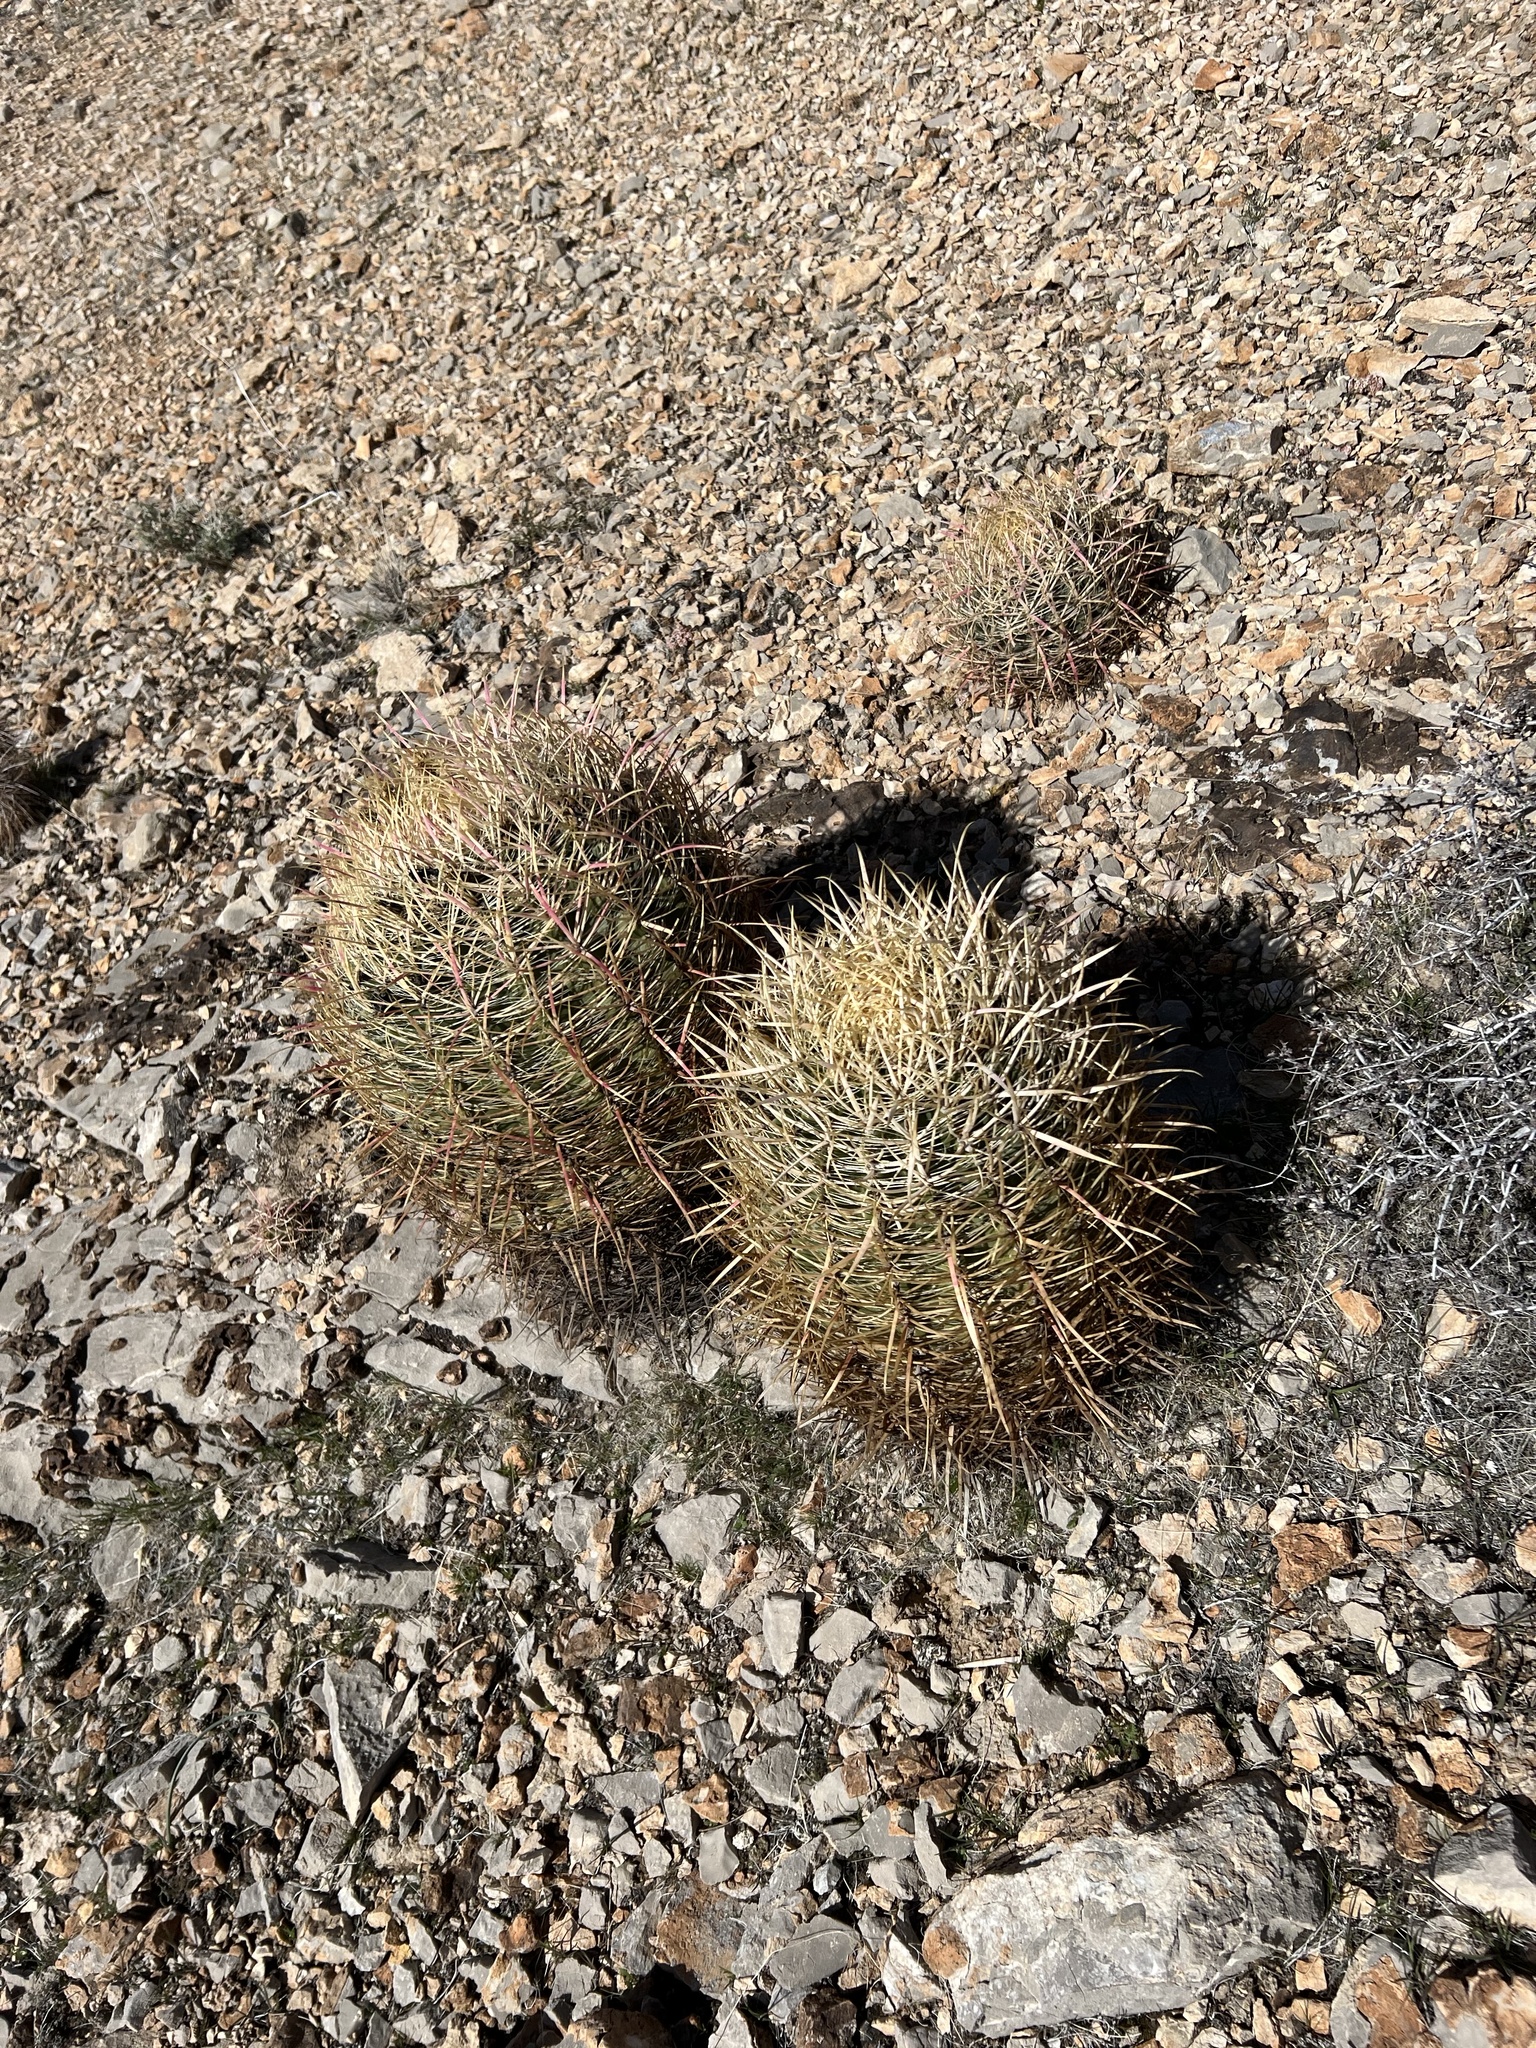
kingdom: Plantae
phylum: Tracheophyta
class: Magnoliopsida
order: Caryophyllales
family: Cactaceae
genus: Ferocactus
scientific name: Ferocactus cylindraceus
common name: California barrel cactus
